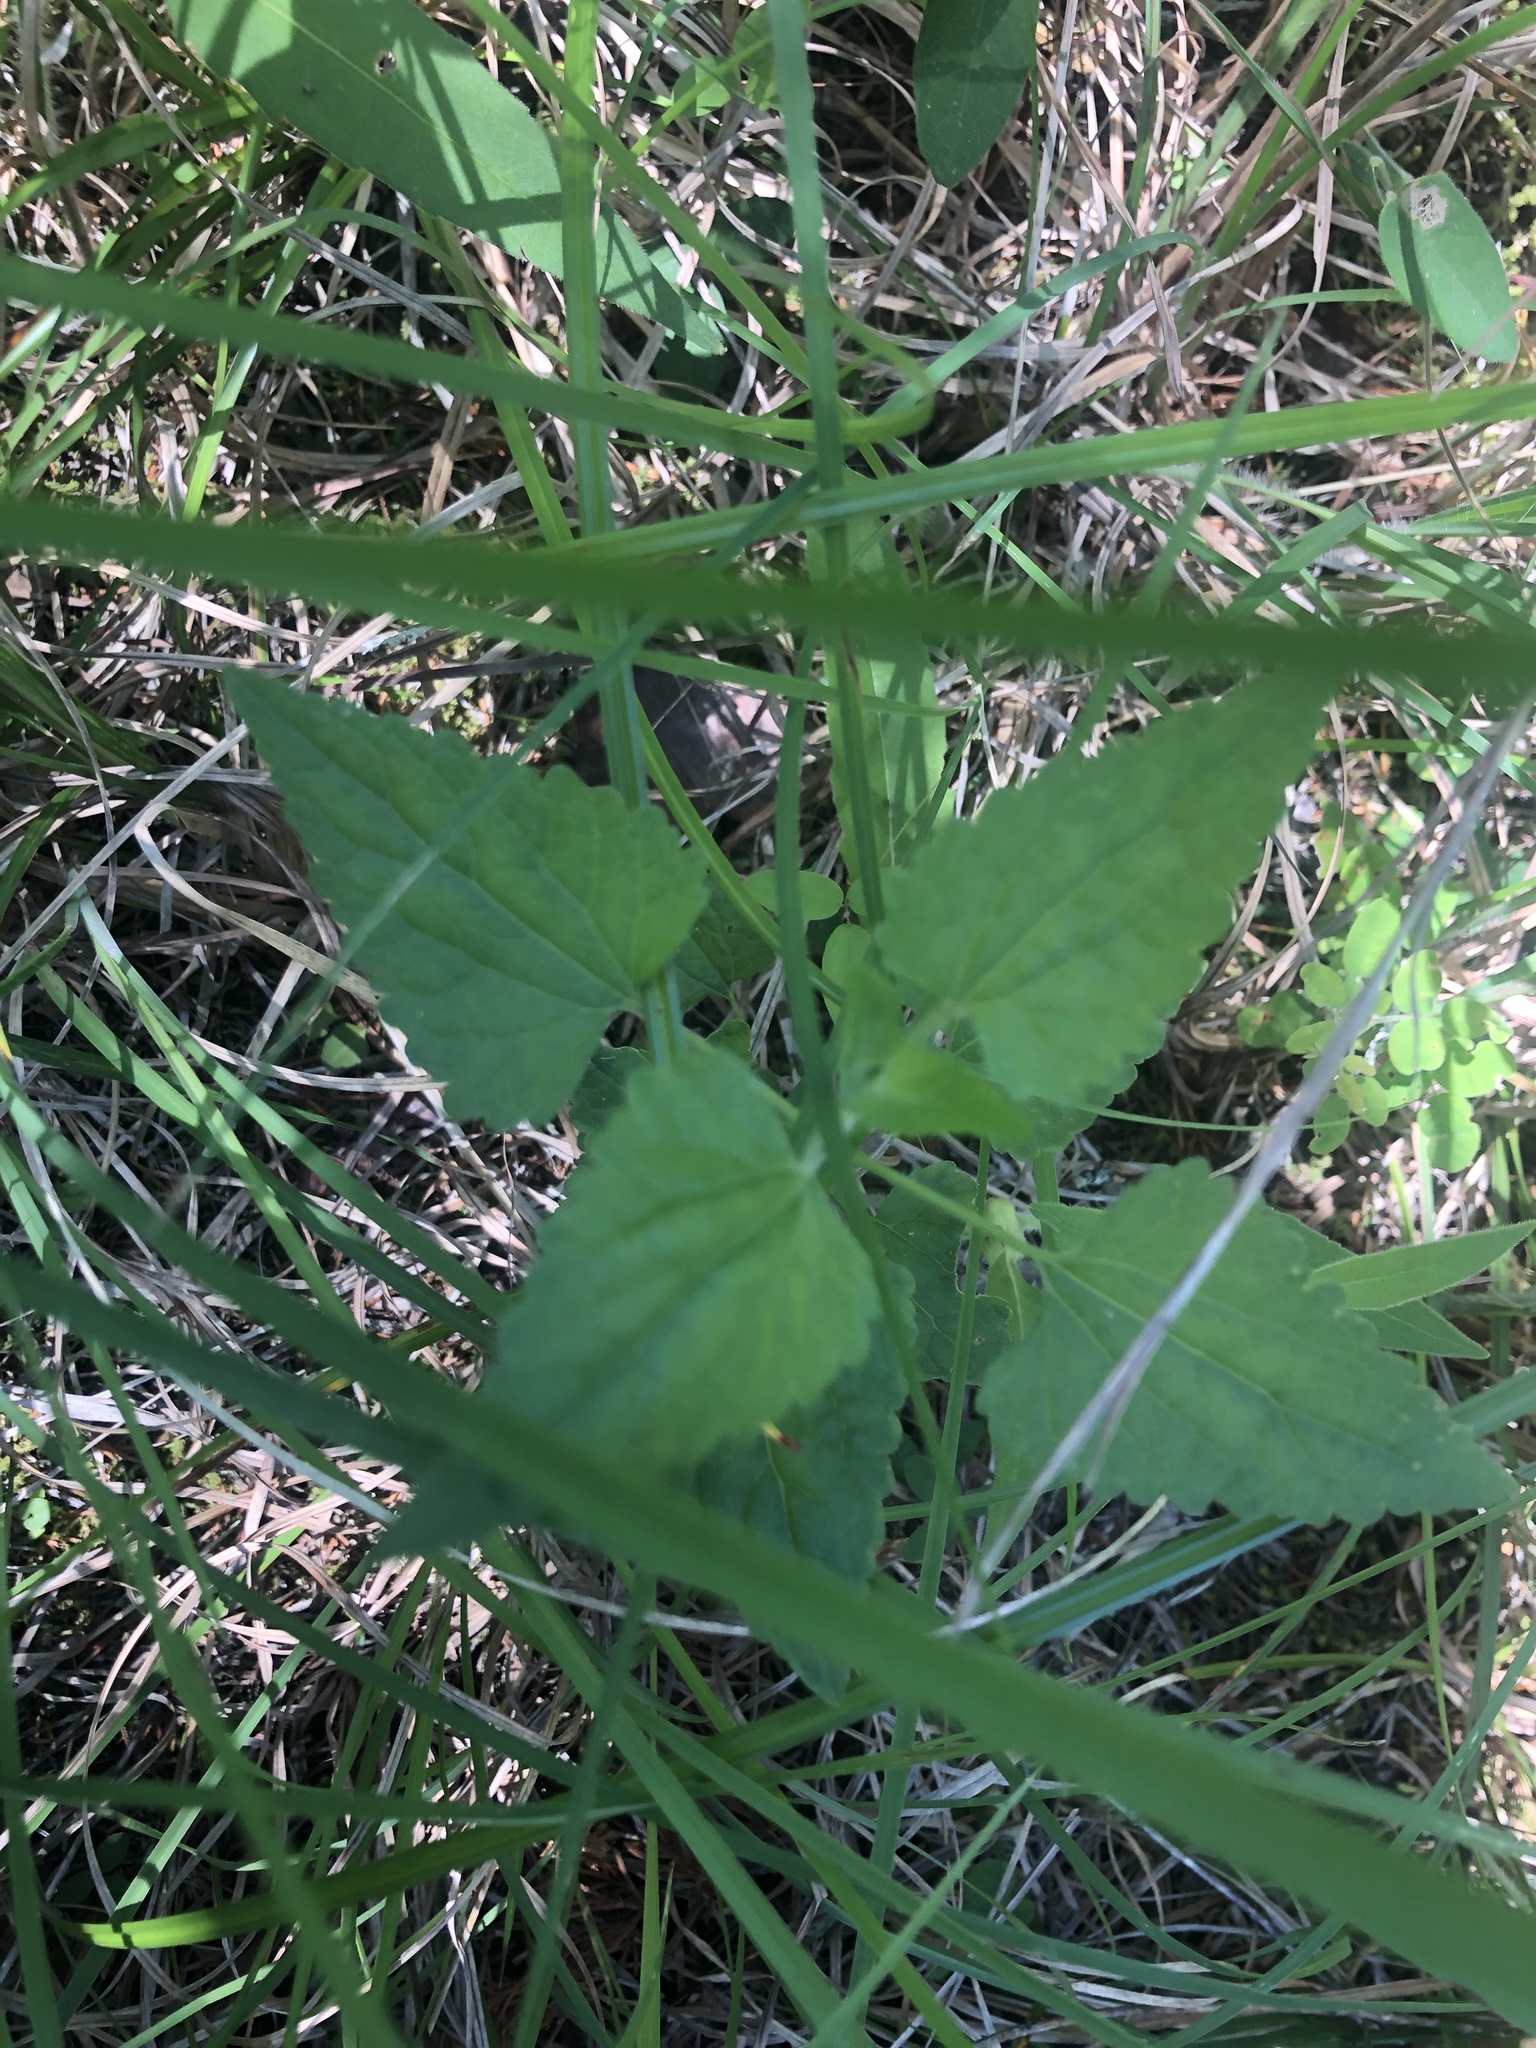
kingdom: Plantae
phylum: Tracheophyta
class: Magnoliopsida
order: Asterales
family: Asteraceae
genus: Fleischmannia
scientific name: Fleischmannia incarnata
